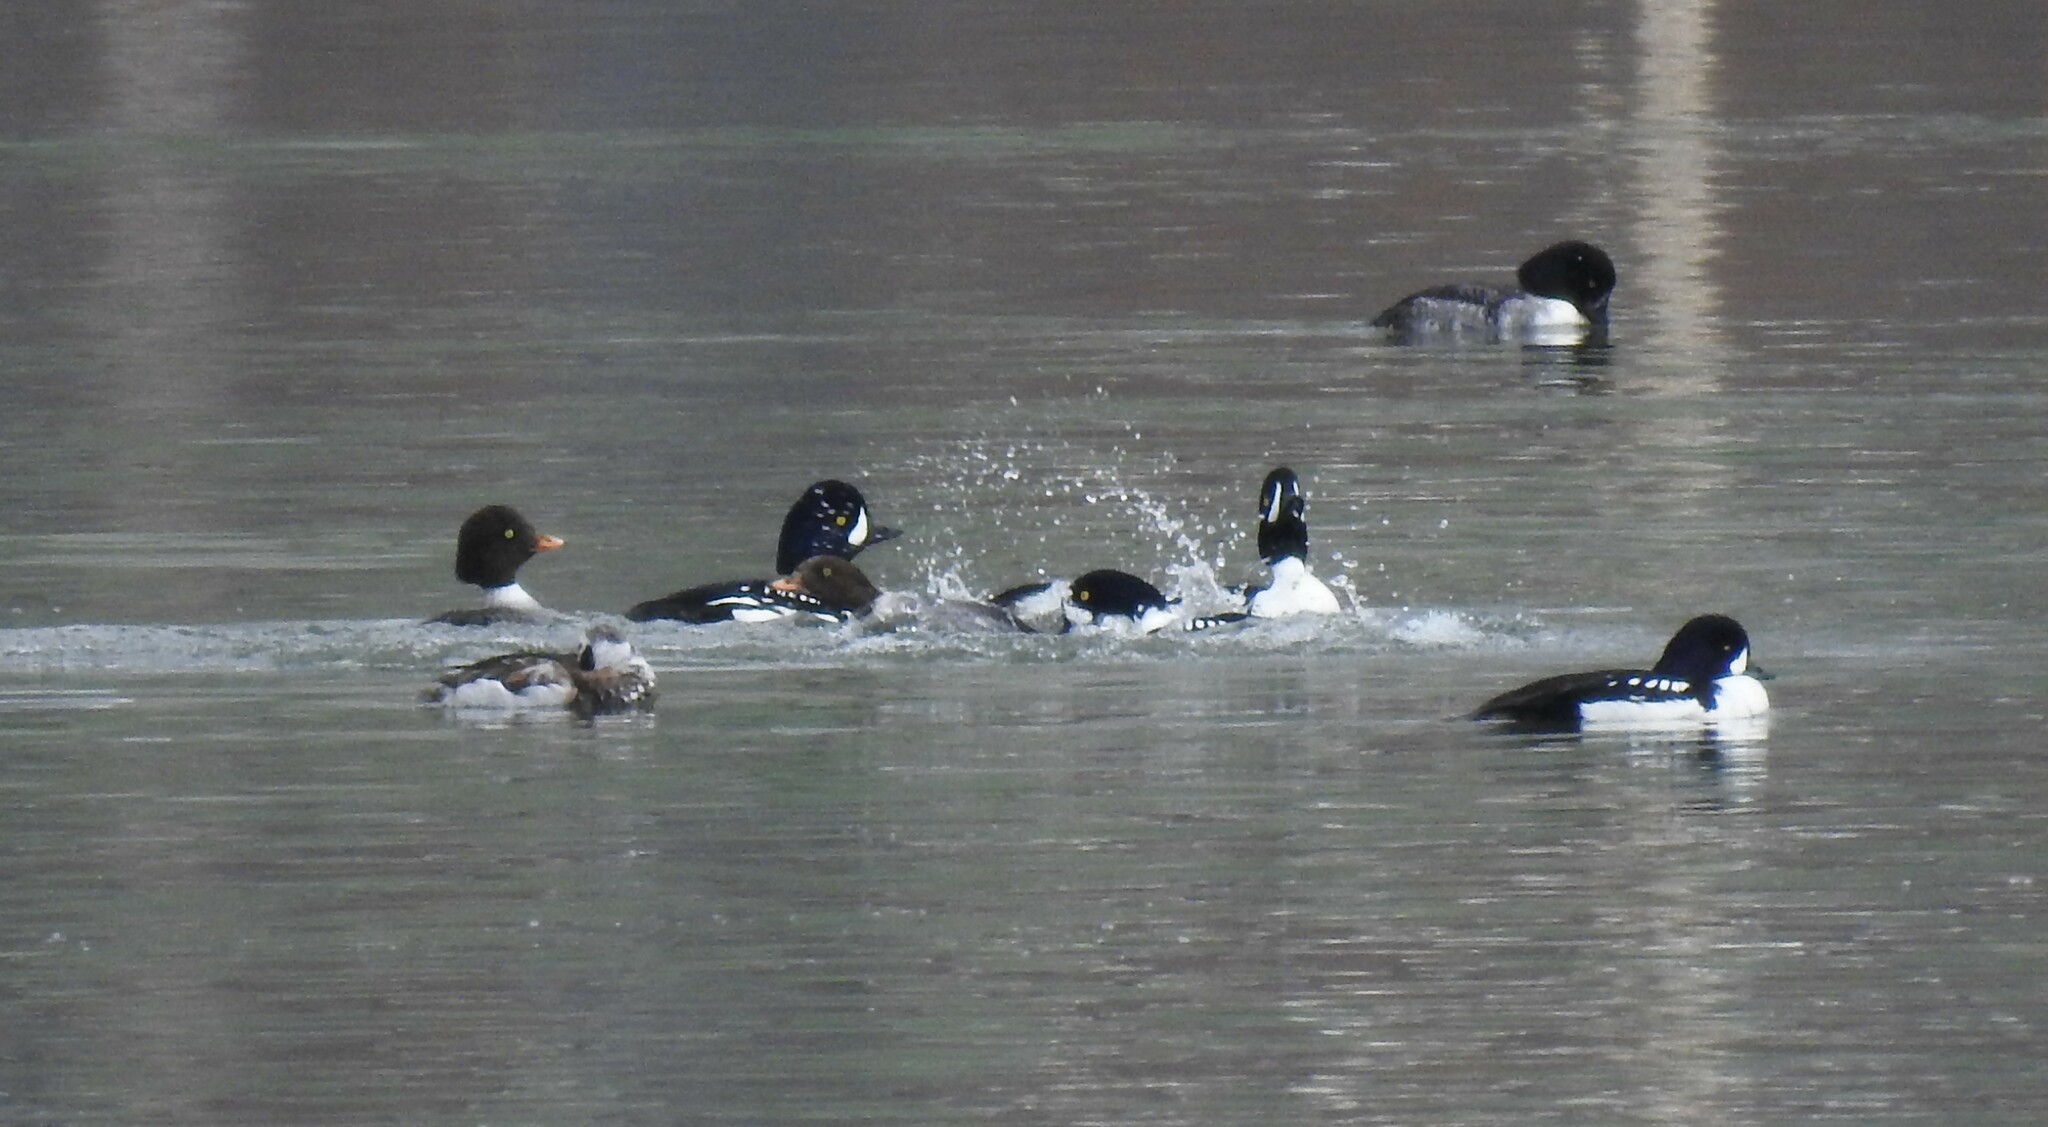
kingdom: Animalia
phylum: Chordata
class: Aves
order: Anseriformes
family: Anatidae
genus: Bucephala
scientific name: Bucephala islandica
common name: Barrow's goldeneye
